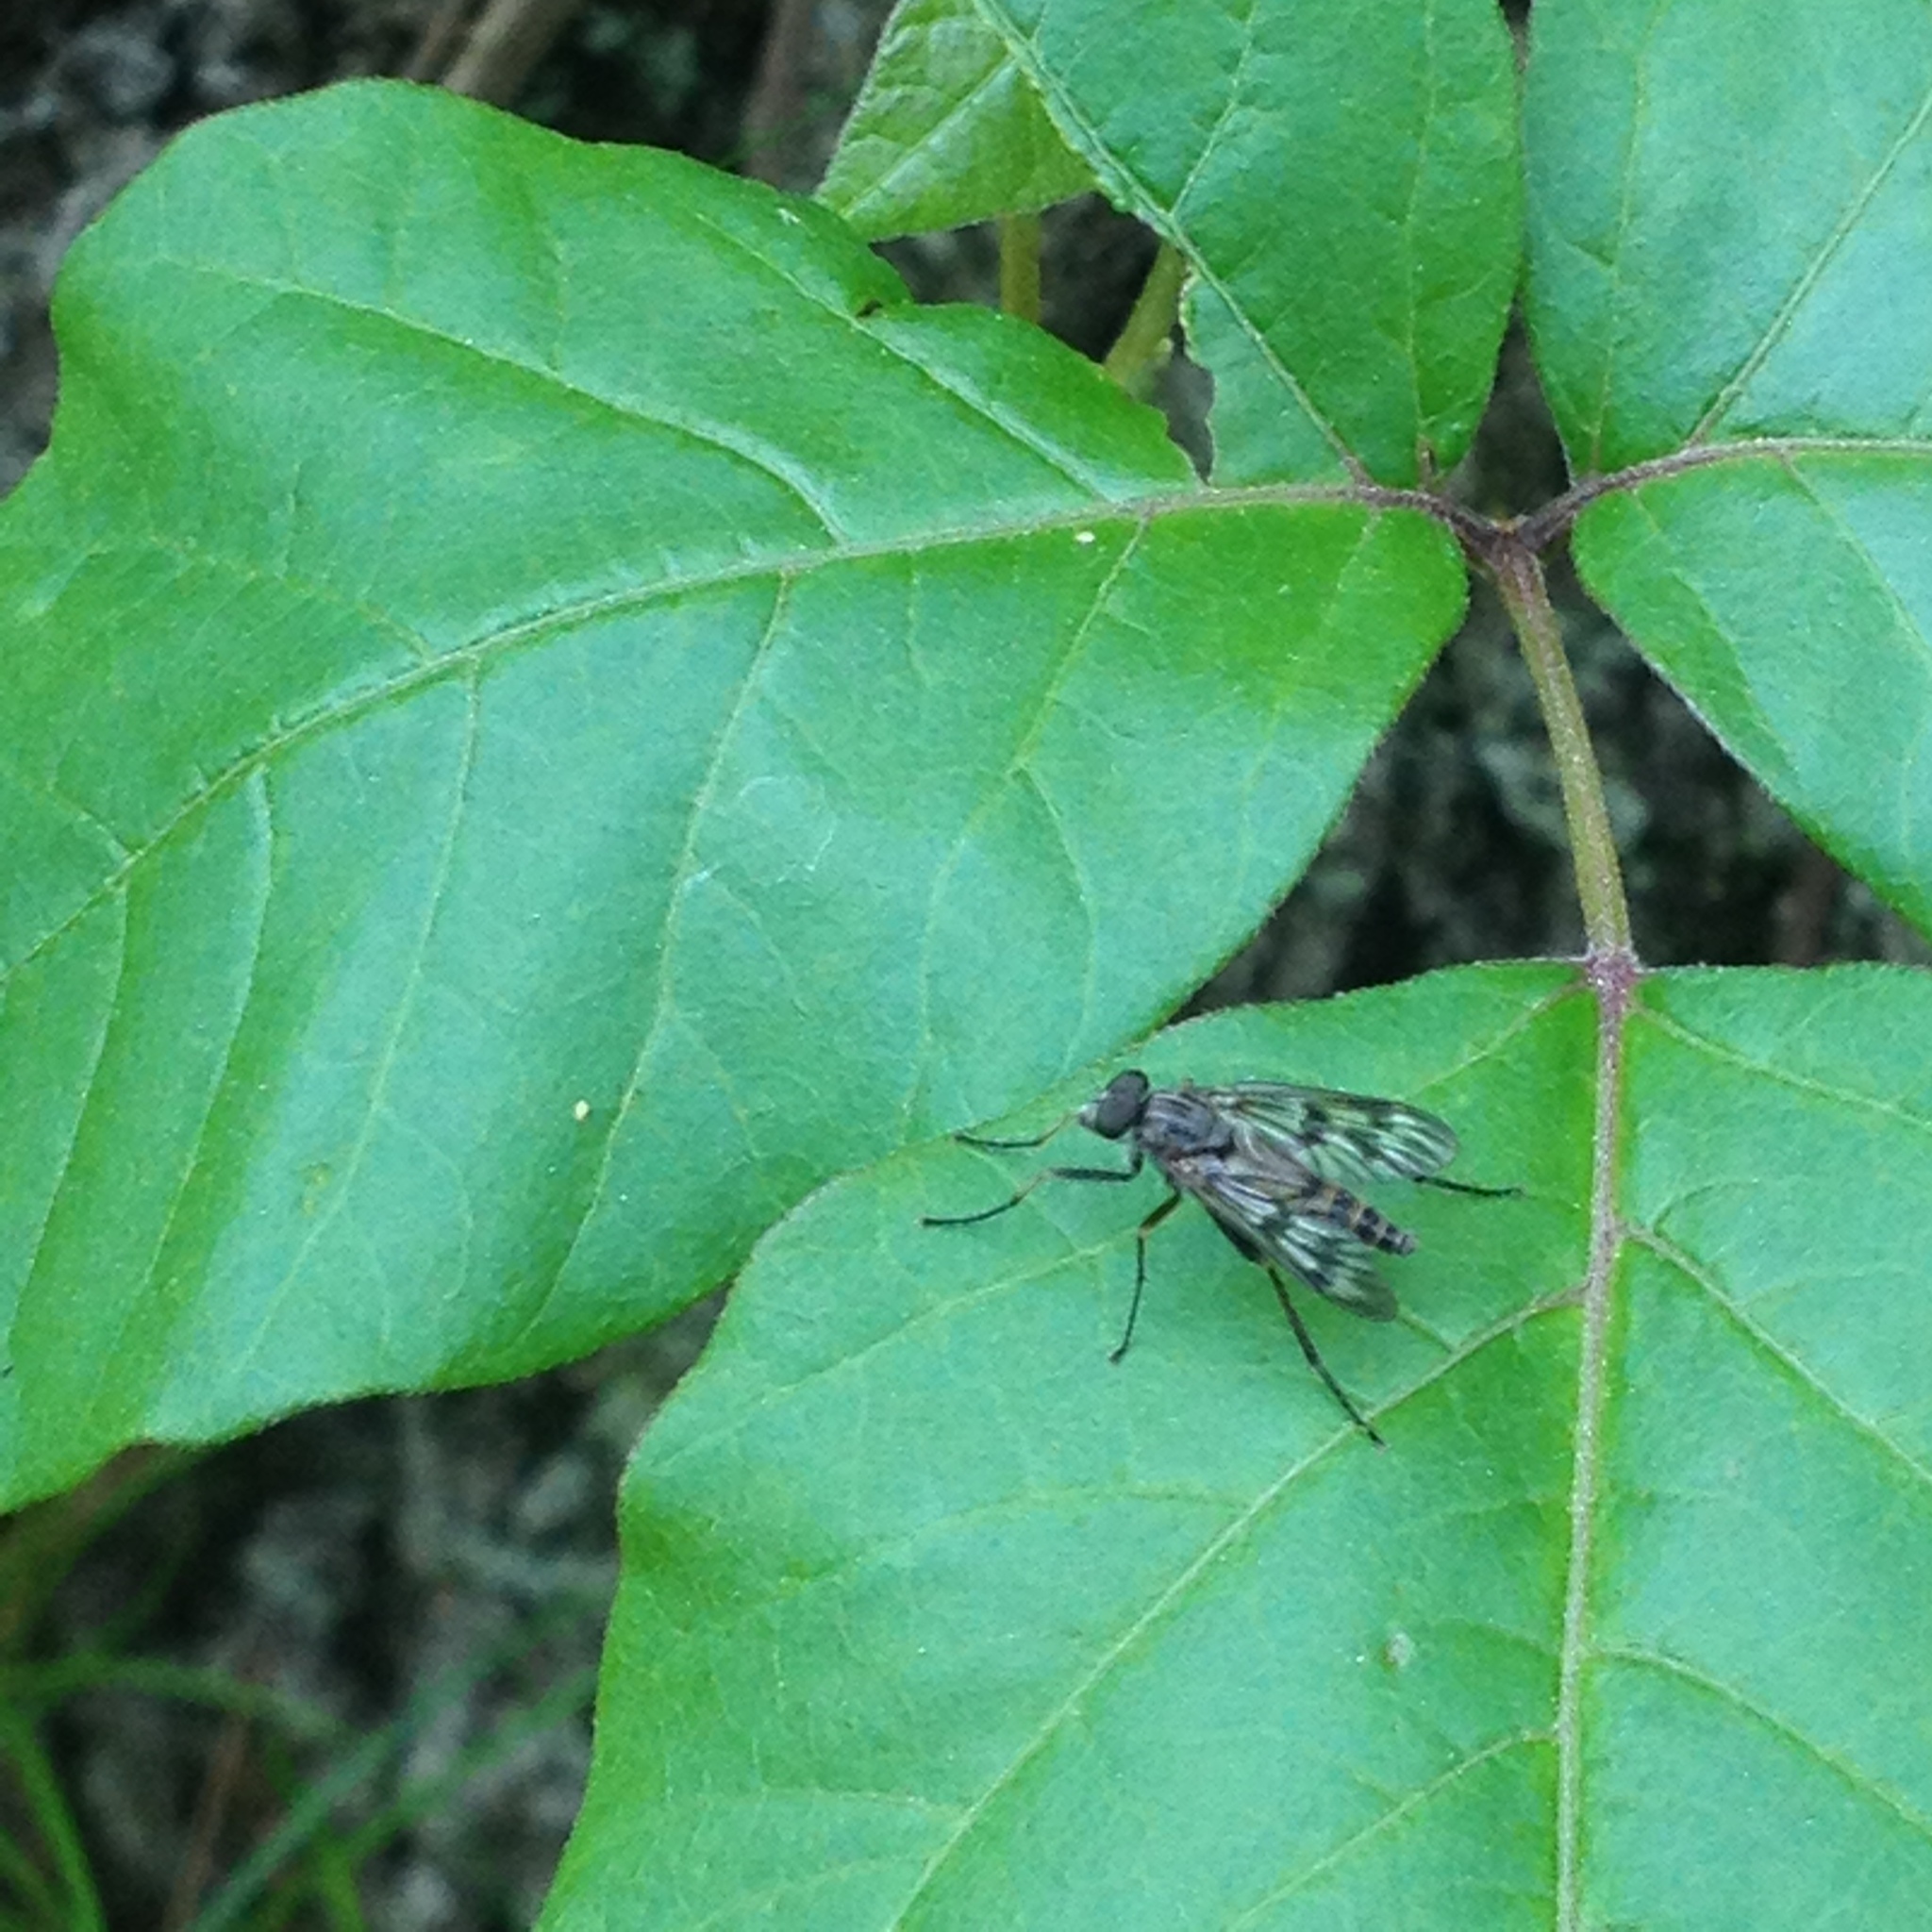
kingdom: Animalia
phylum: Arthropoda
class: Insecta
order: Diptera
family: Rhagionidae
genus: Rhagio
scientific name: Rhagio mystaceus
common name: Common snipe fly
